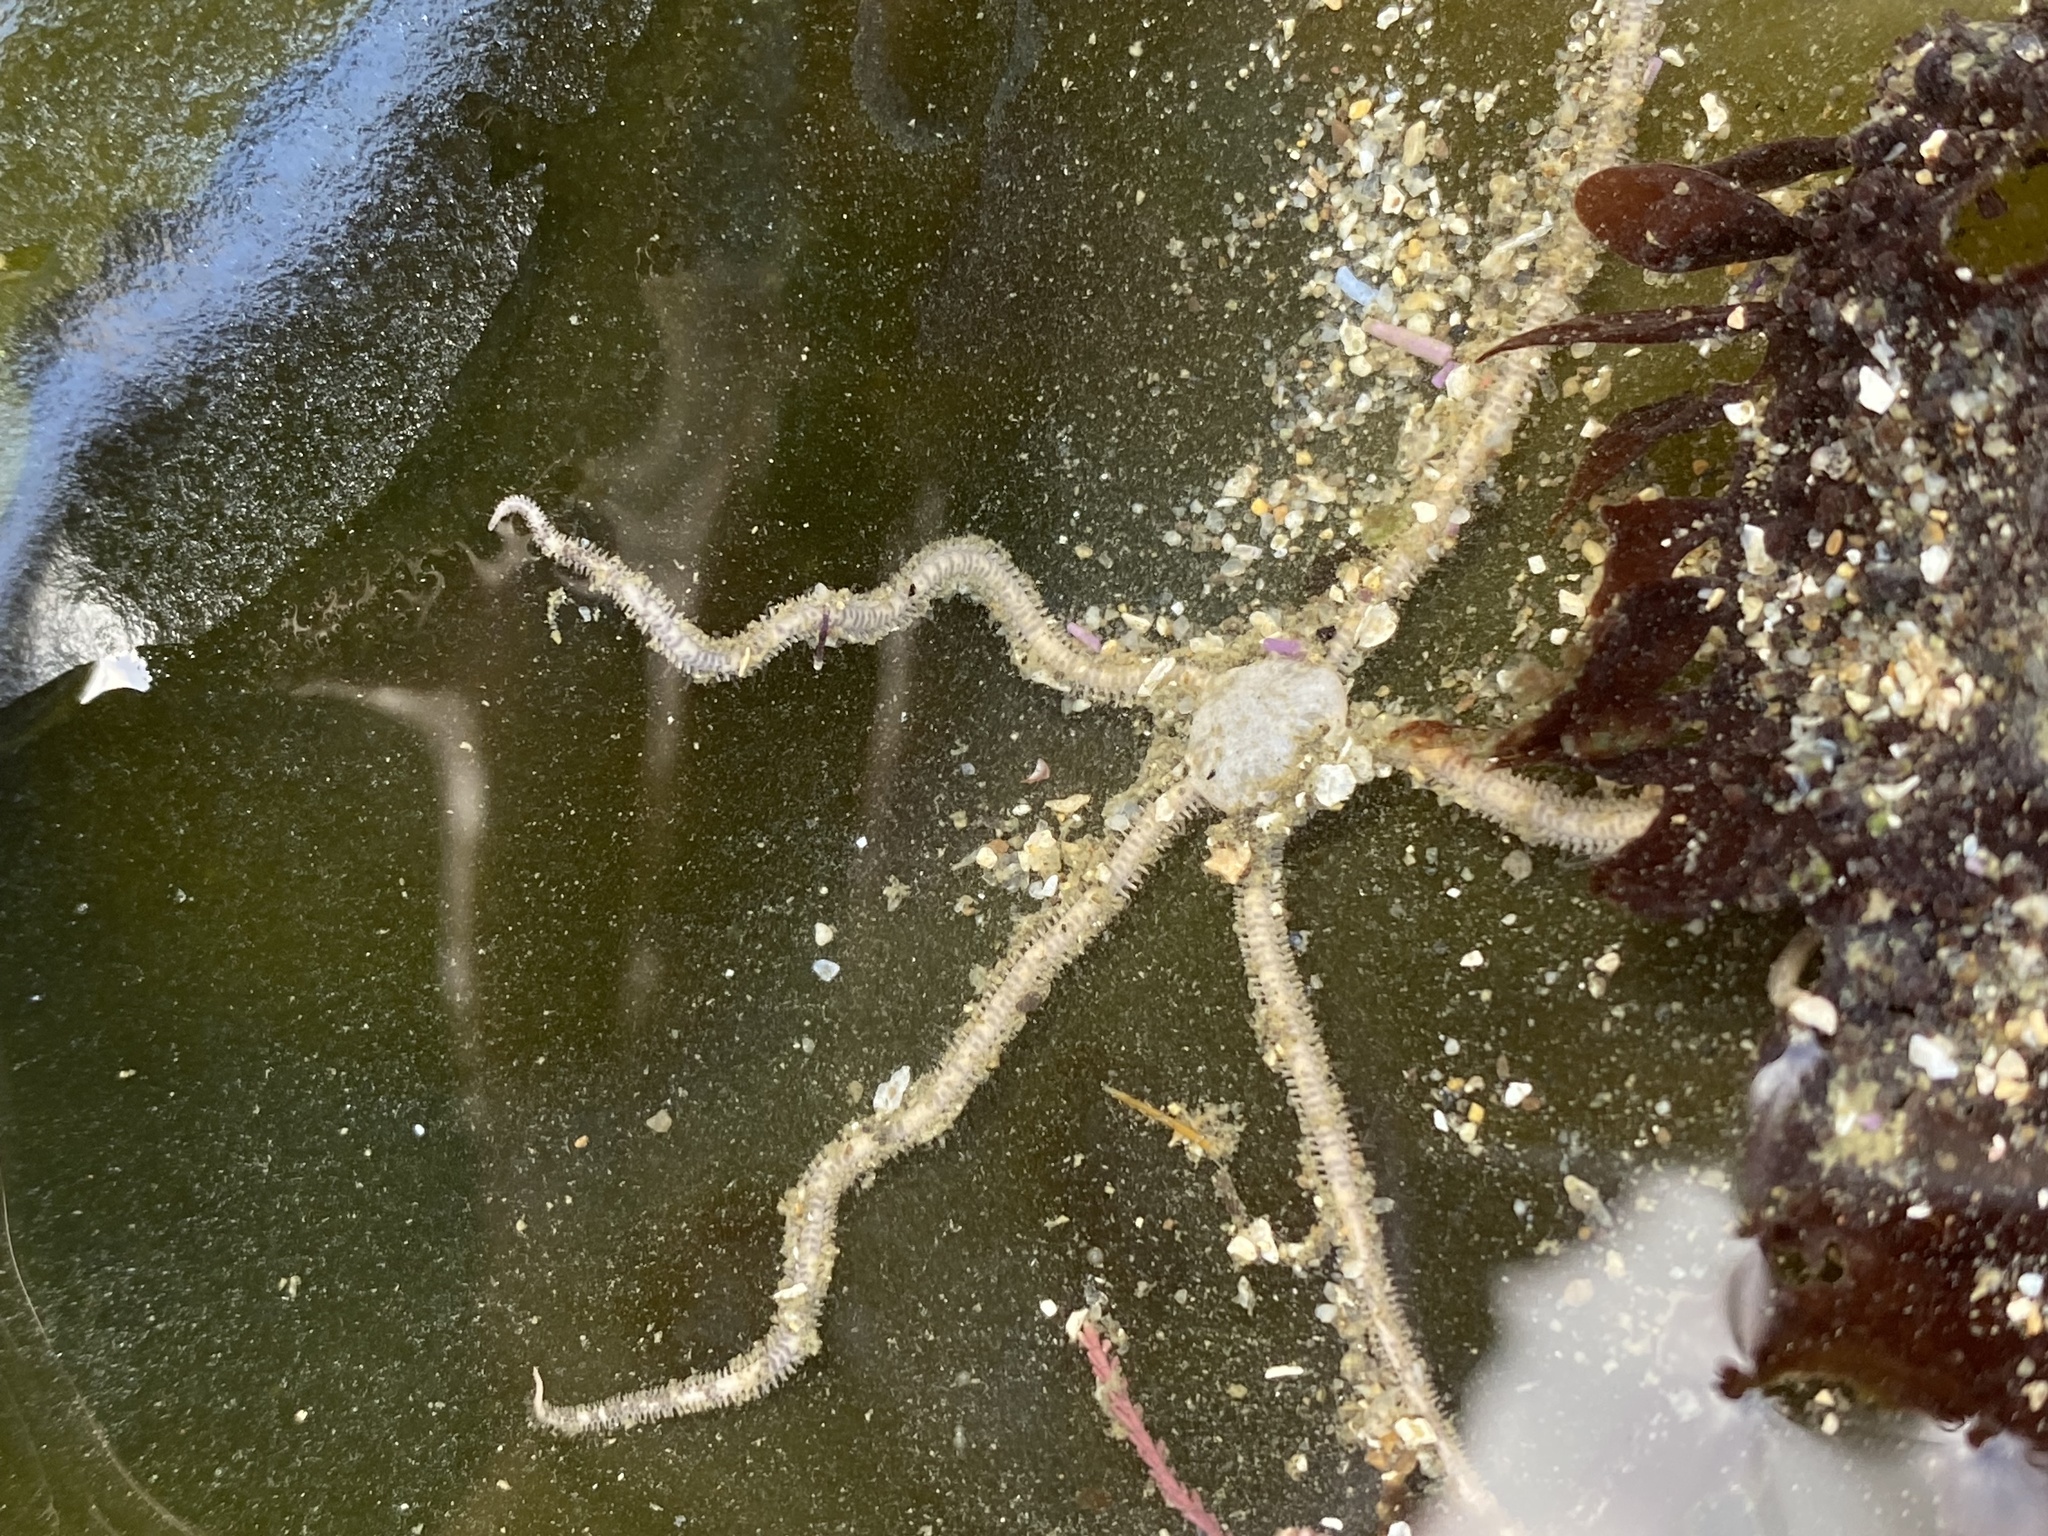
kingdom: Animalia
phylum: Echinodermata
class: Ophiuroidea
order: Amphilepidida
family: Amphiuridae
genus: Amphiodia
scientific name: Amphiodia occidentalis
